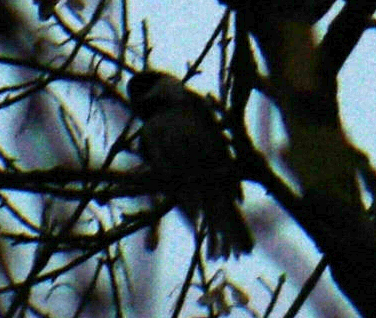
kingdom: Animalia
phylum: Chordata
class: Aves
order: Passeriformes
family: Paridae
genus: Poecile
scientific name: Poecile atricapillus
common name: Black-capped chickadee
